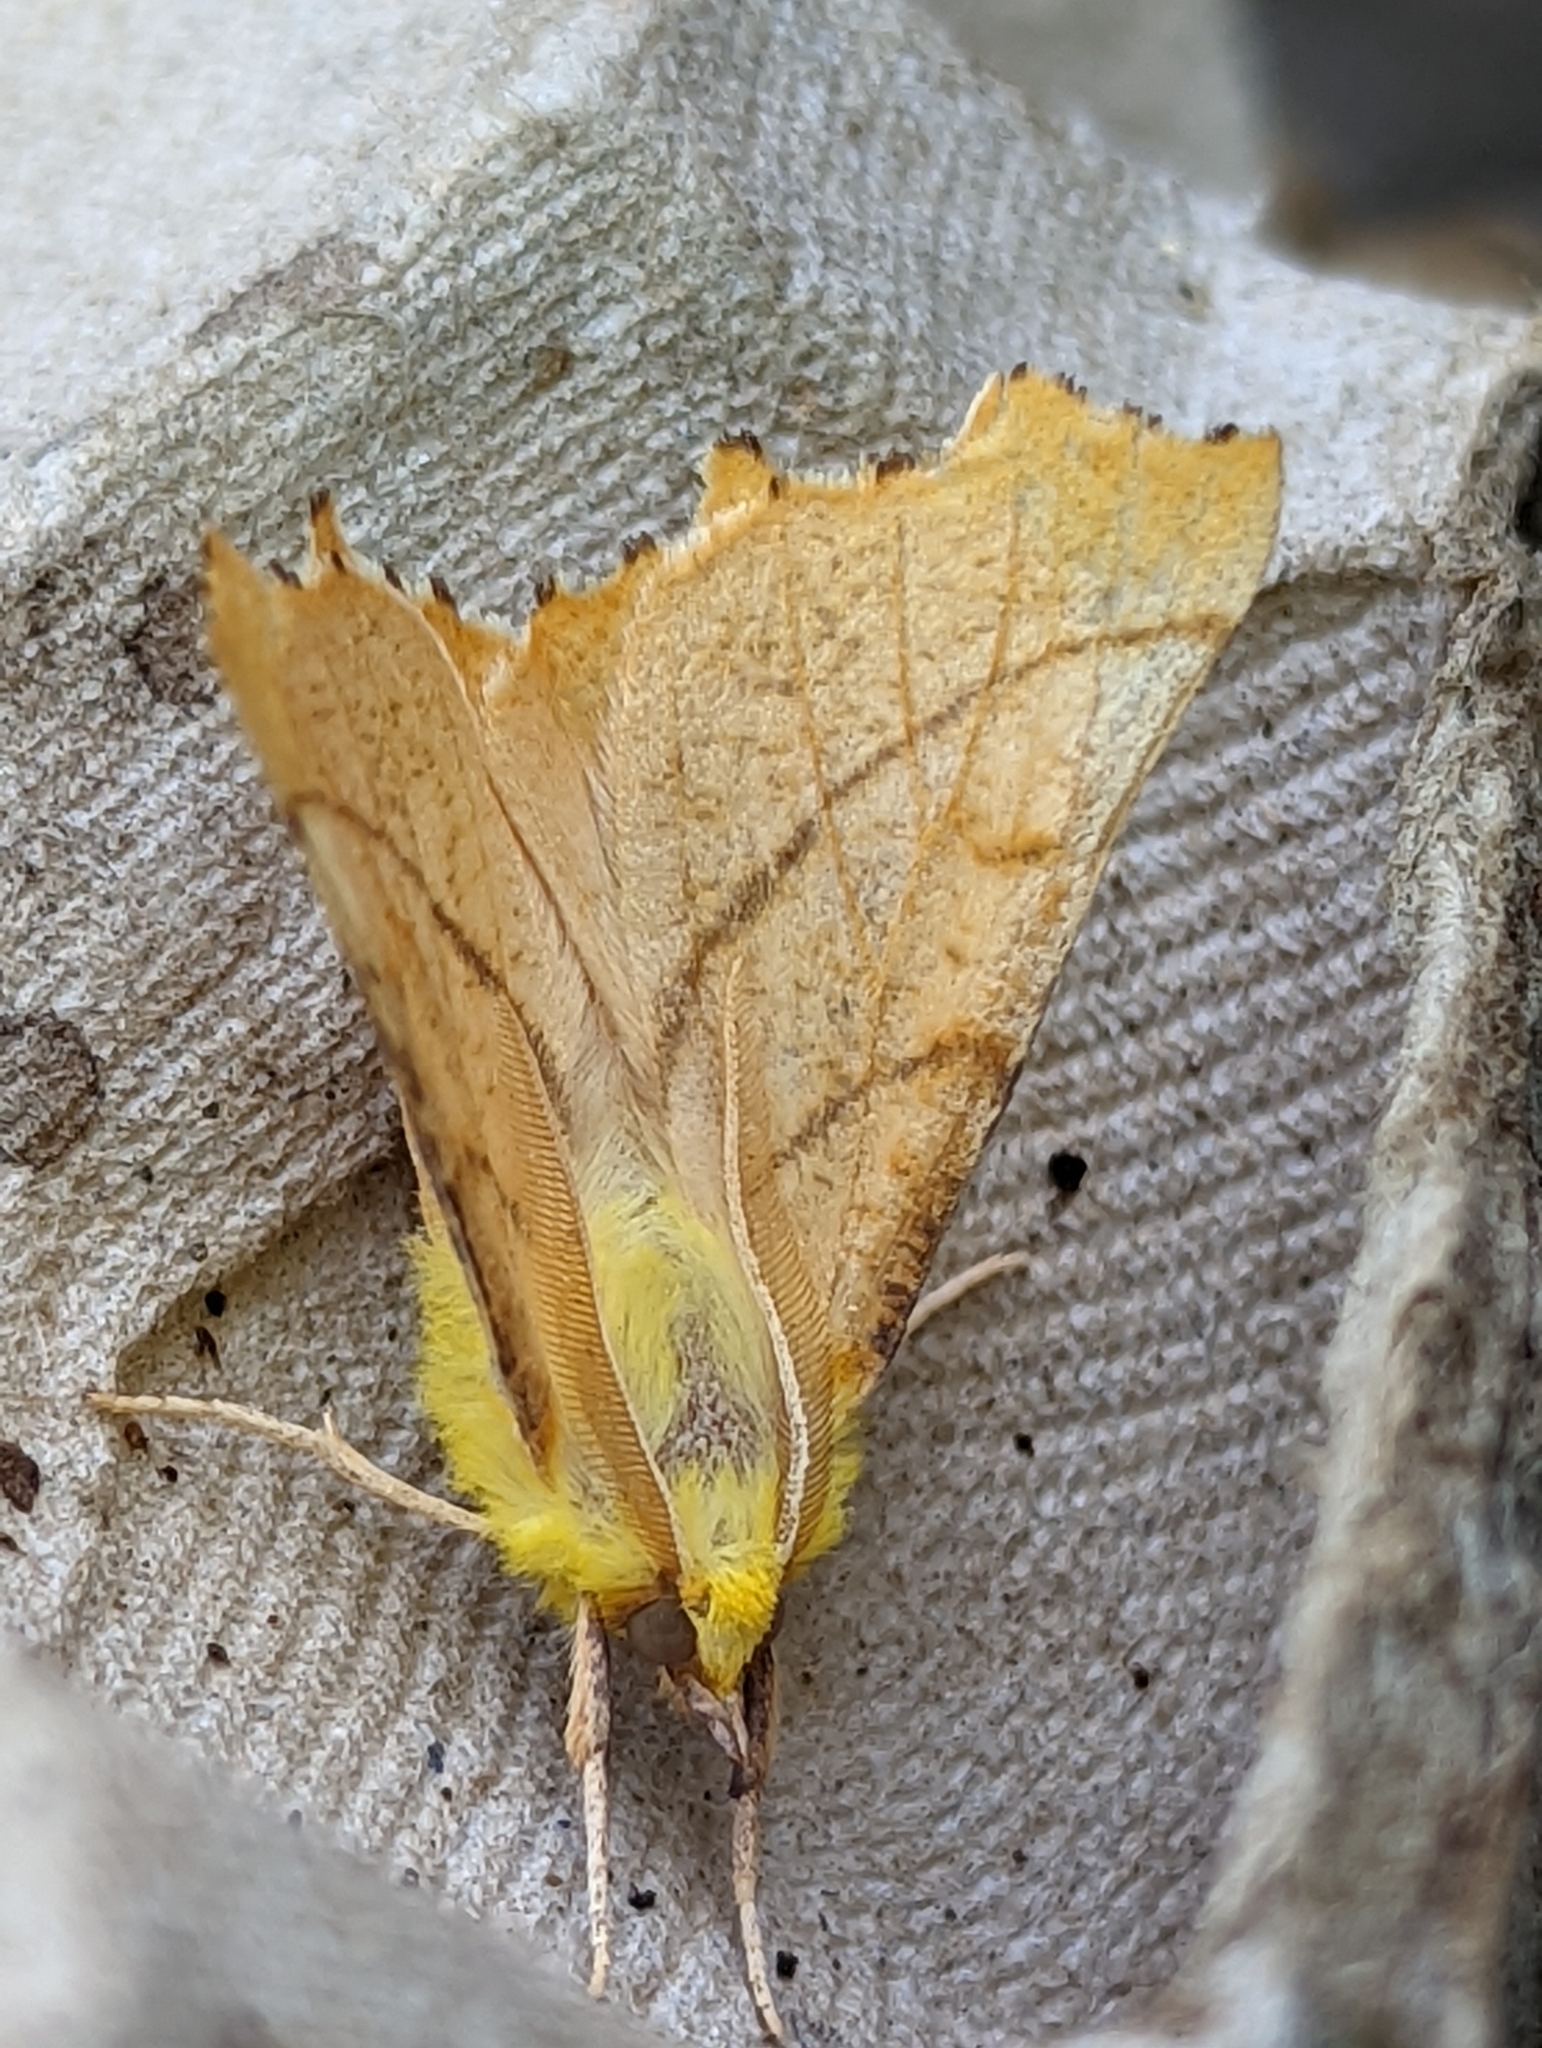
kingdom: Animalia
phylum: Arthropoda
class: Insecta
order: Lepidoptera
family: Geometridae
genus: Ennomos
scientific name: Ennomos alniaria
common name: Canary-shouldered thorn
